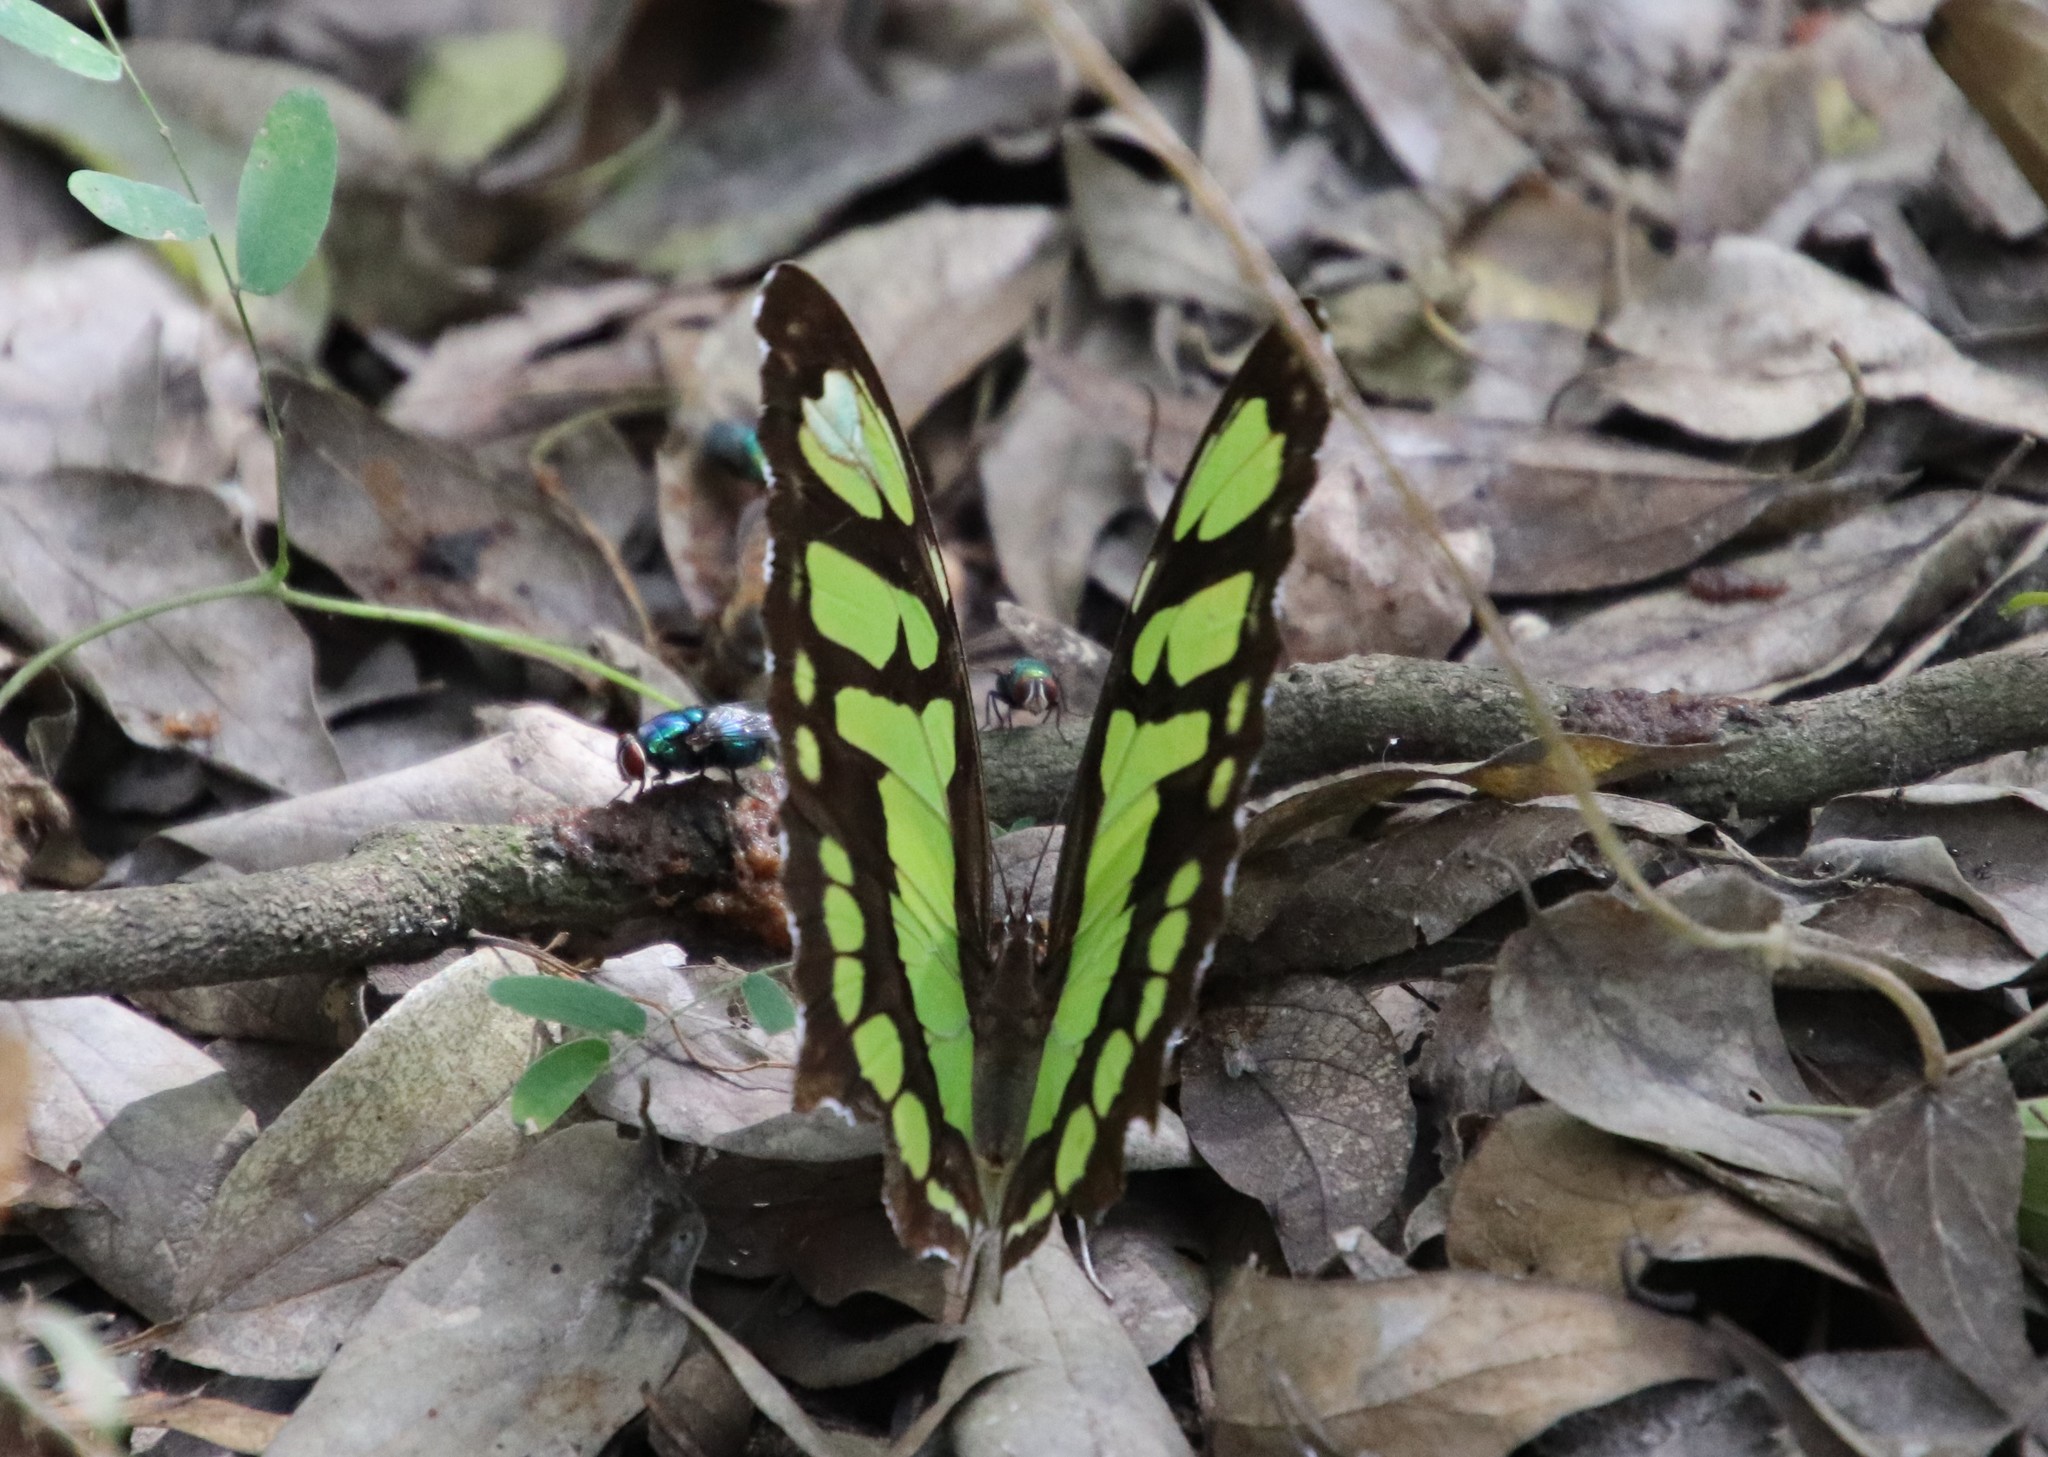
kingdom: Animalia
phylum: Arthropoda
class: Insecta
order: Lepidoptera
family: Nymphalidae
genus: Siproeta
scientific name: Siproeta stelenes
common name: Malachite
